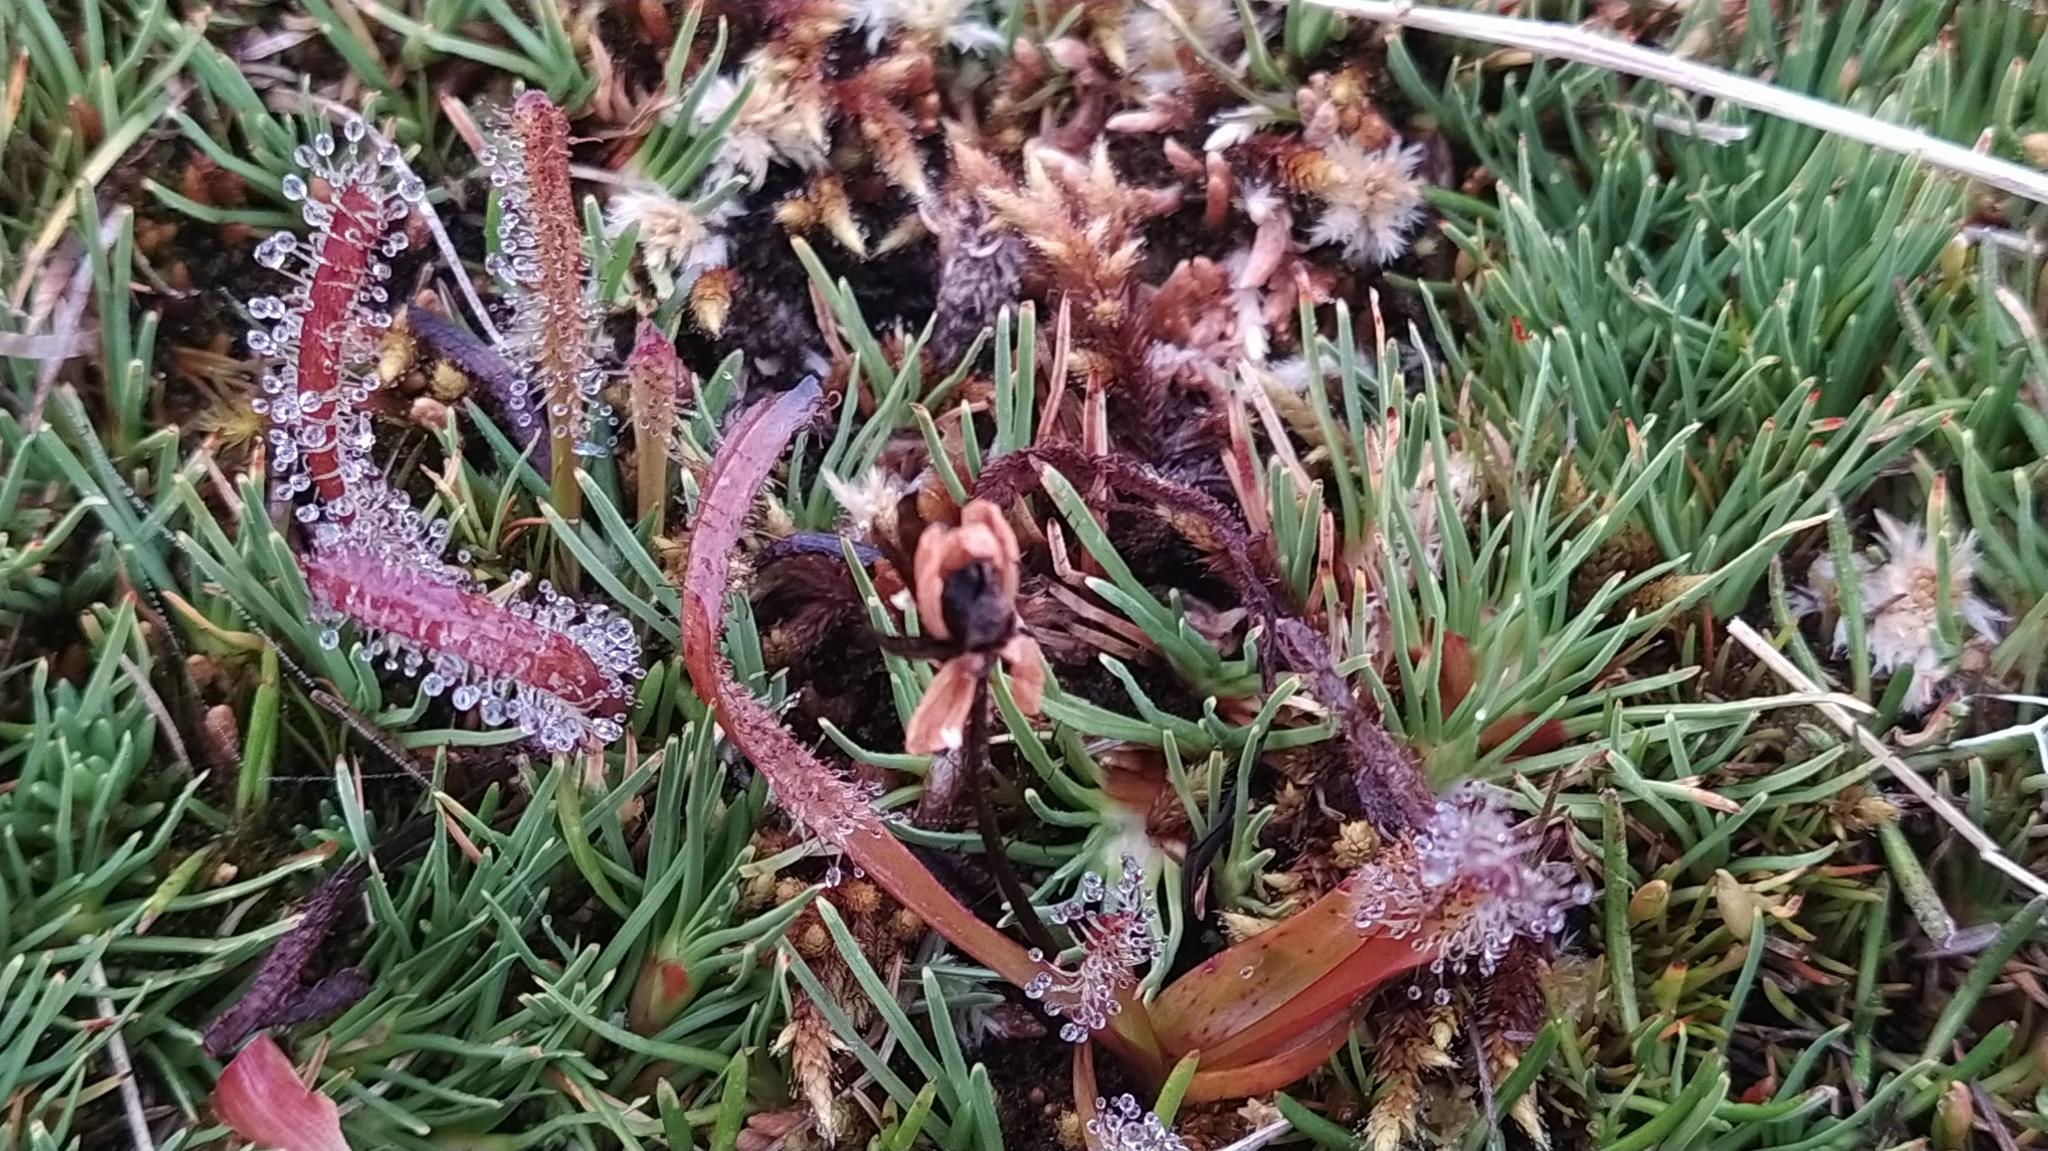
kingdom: Plantae
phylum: Tracheophyta
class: Magnoliopsida
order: Caryophyllales
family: Droseraceae
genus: Drosera
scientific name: Drosera arcturi
